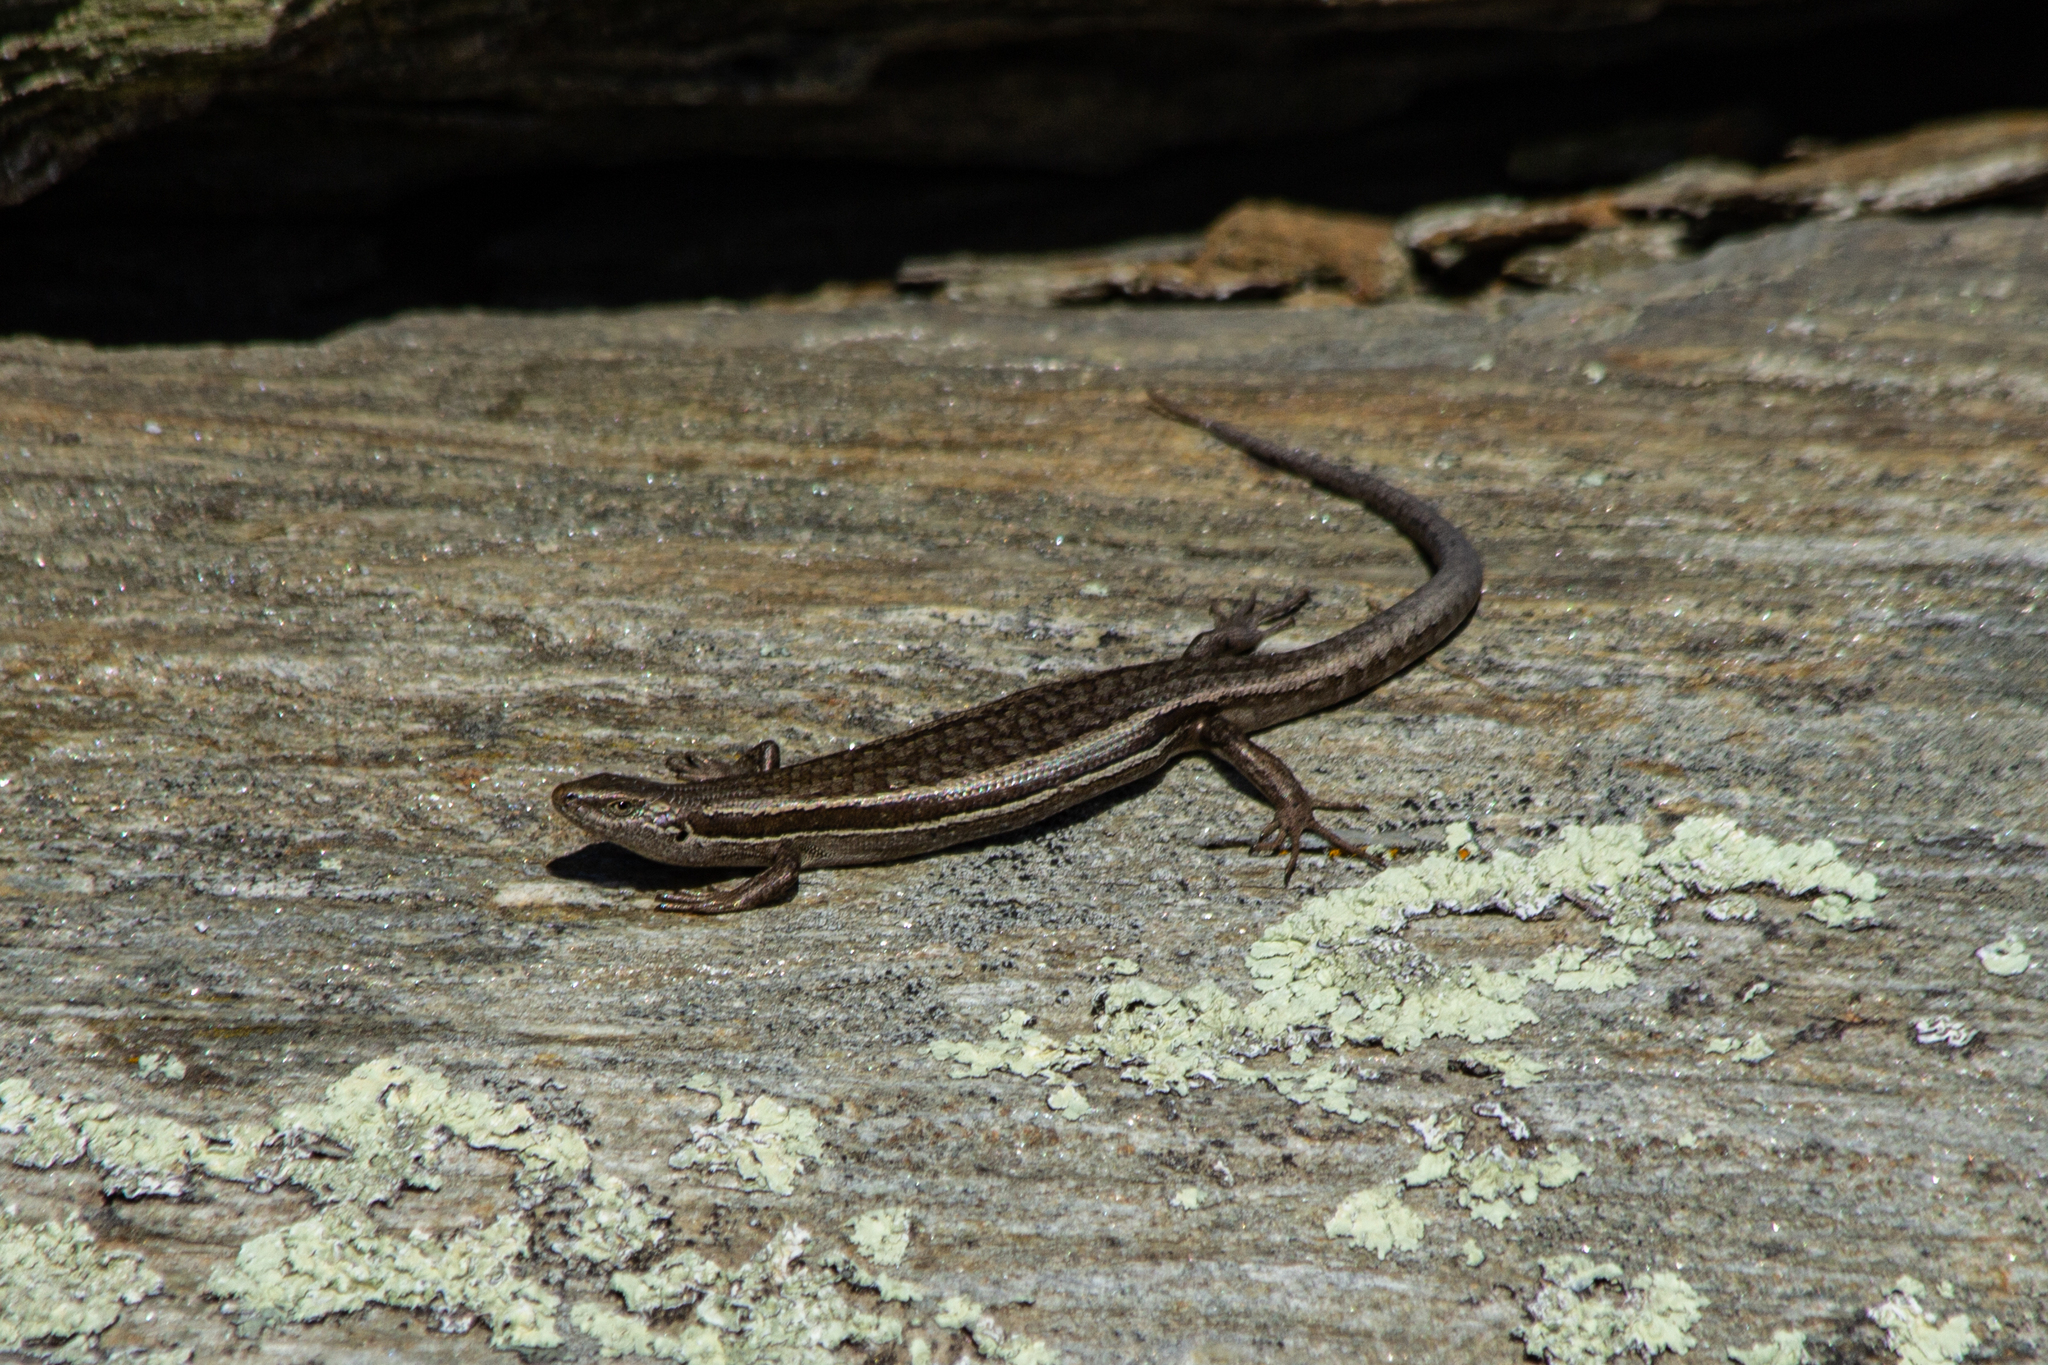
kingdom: Animalia
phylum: Chordata
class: Squamata
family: Scincidae
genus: Oligosoma
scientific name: Oligosoma maccanni
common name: Mccann’s skink
